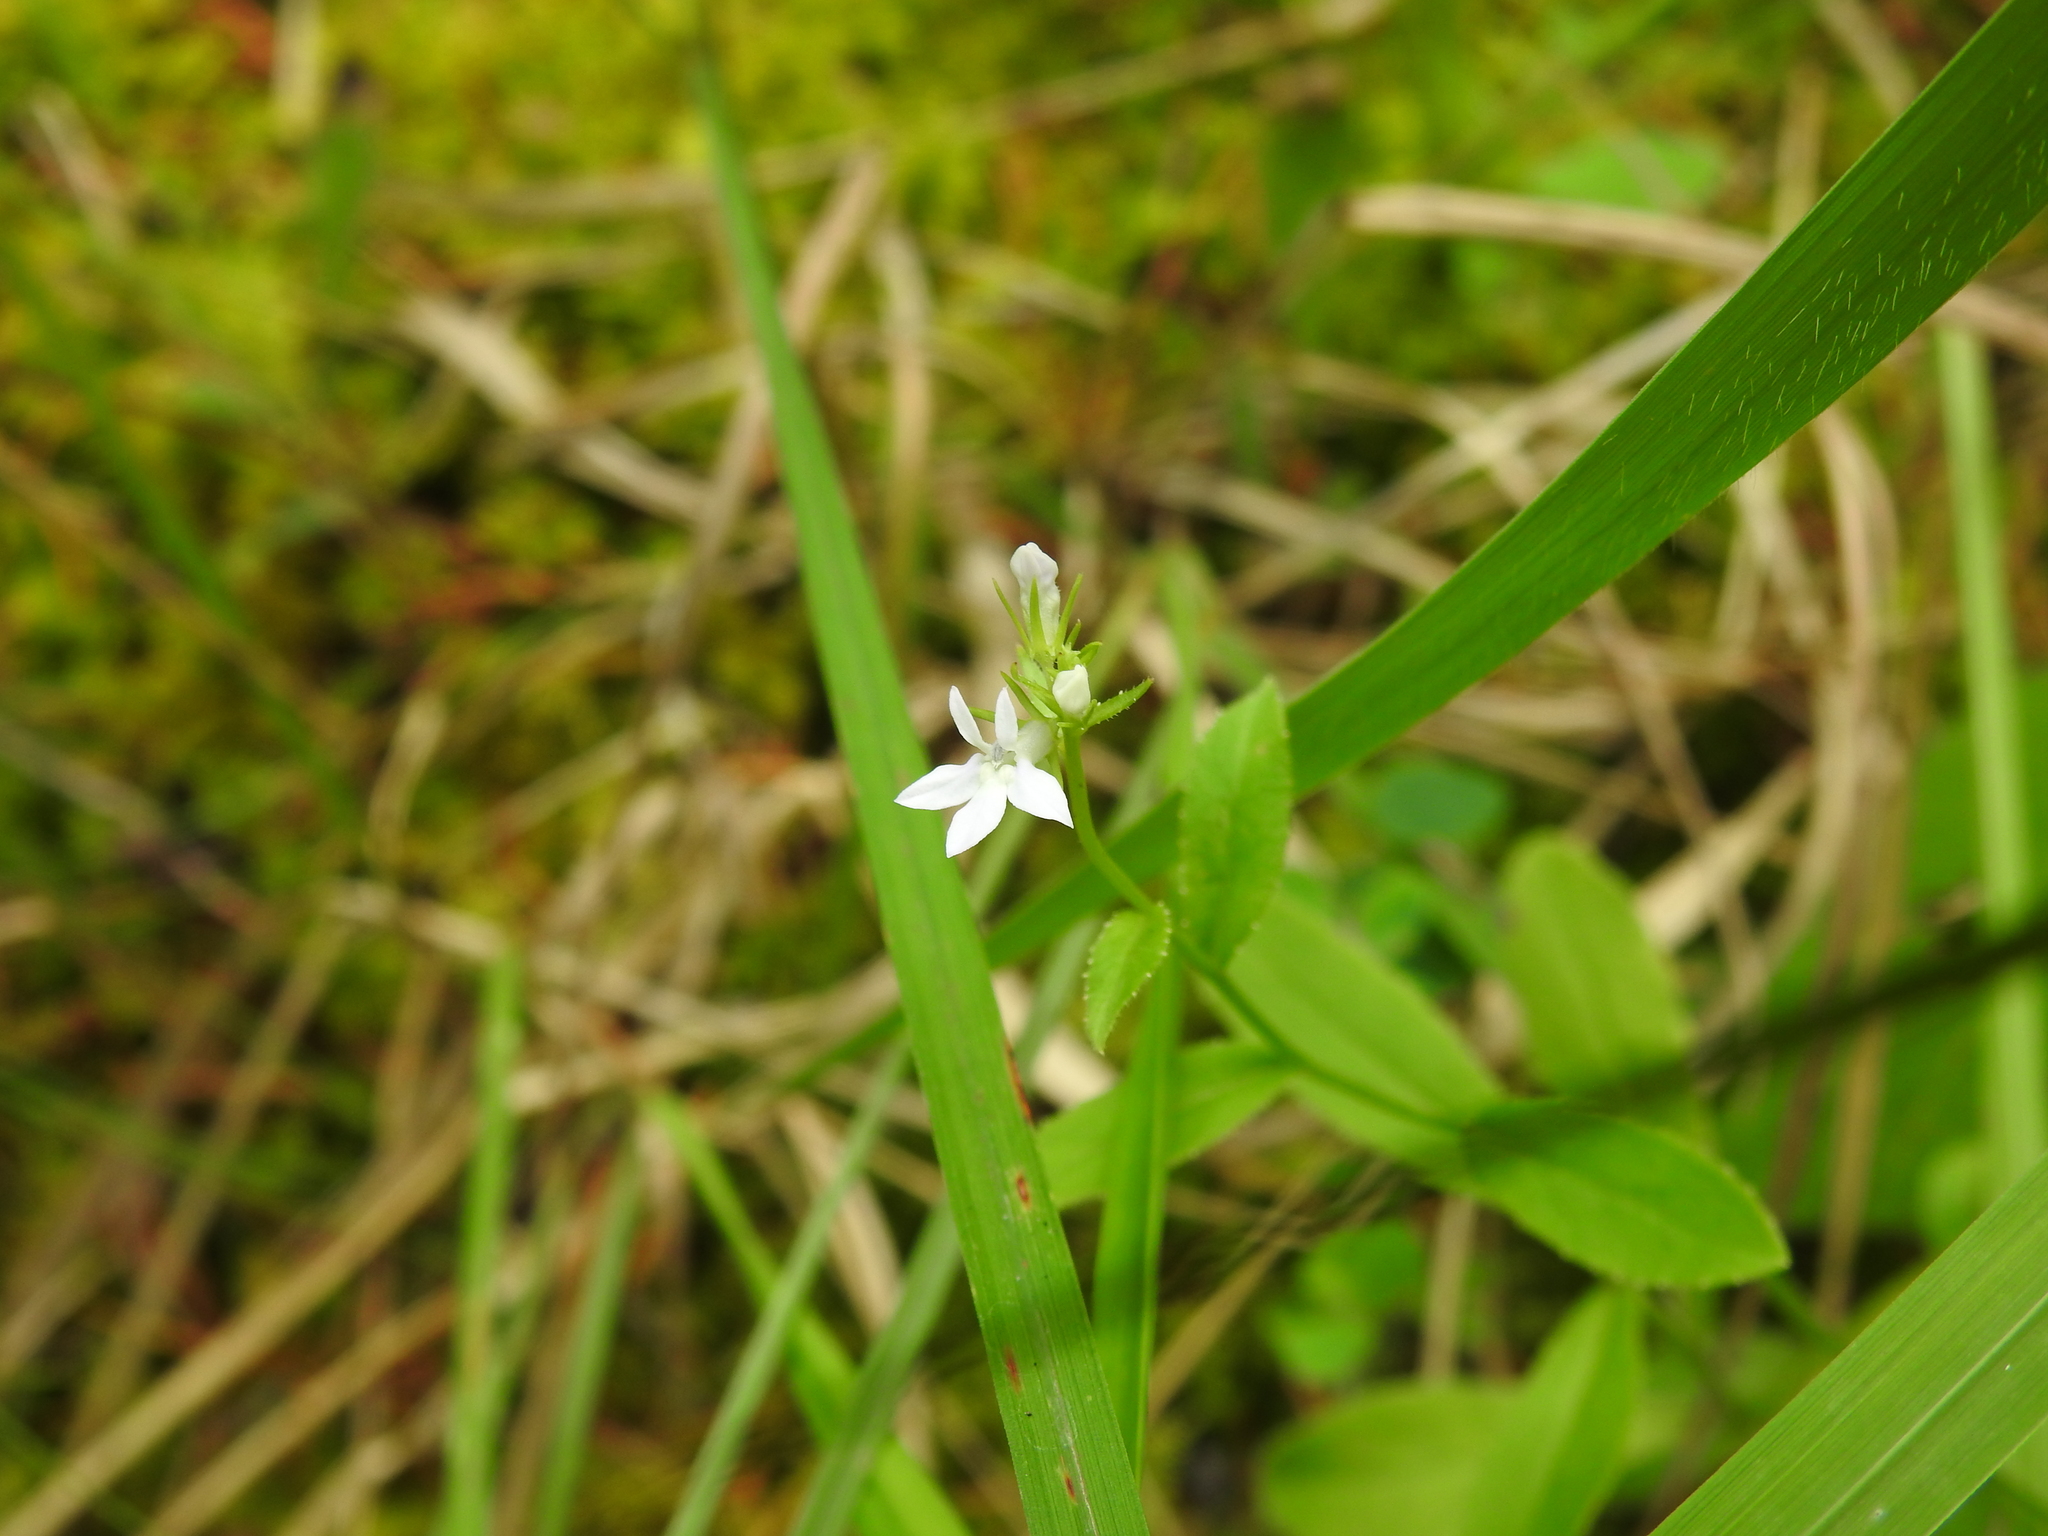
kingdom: Plantae
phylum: Tracheophyta
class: Magnoliopsida
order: Asterales
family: Campanulaceae
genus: Lobelia
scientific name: Lobelia spicata
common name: Pale-spike lobelia
